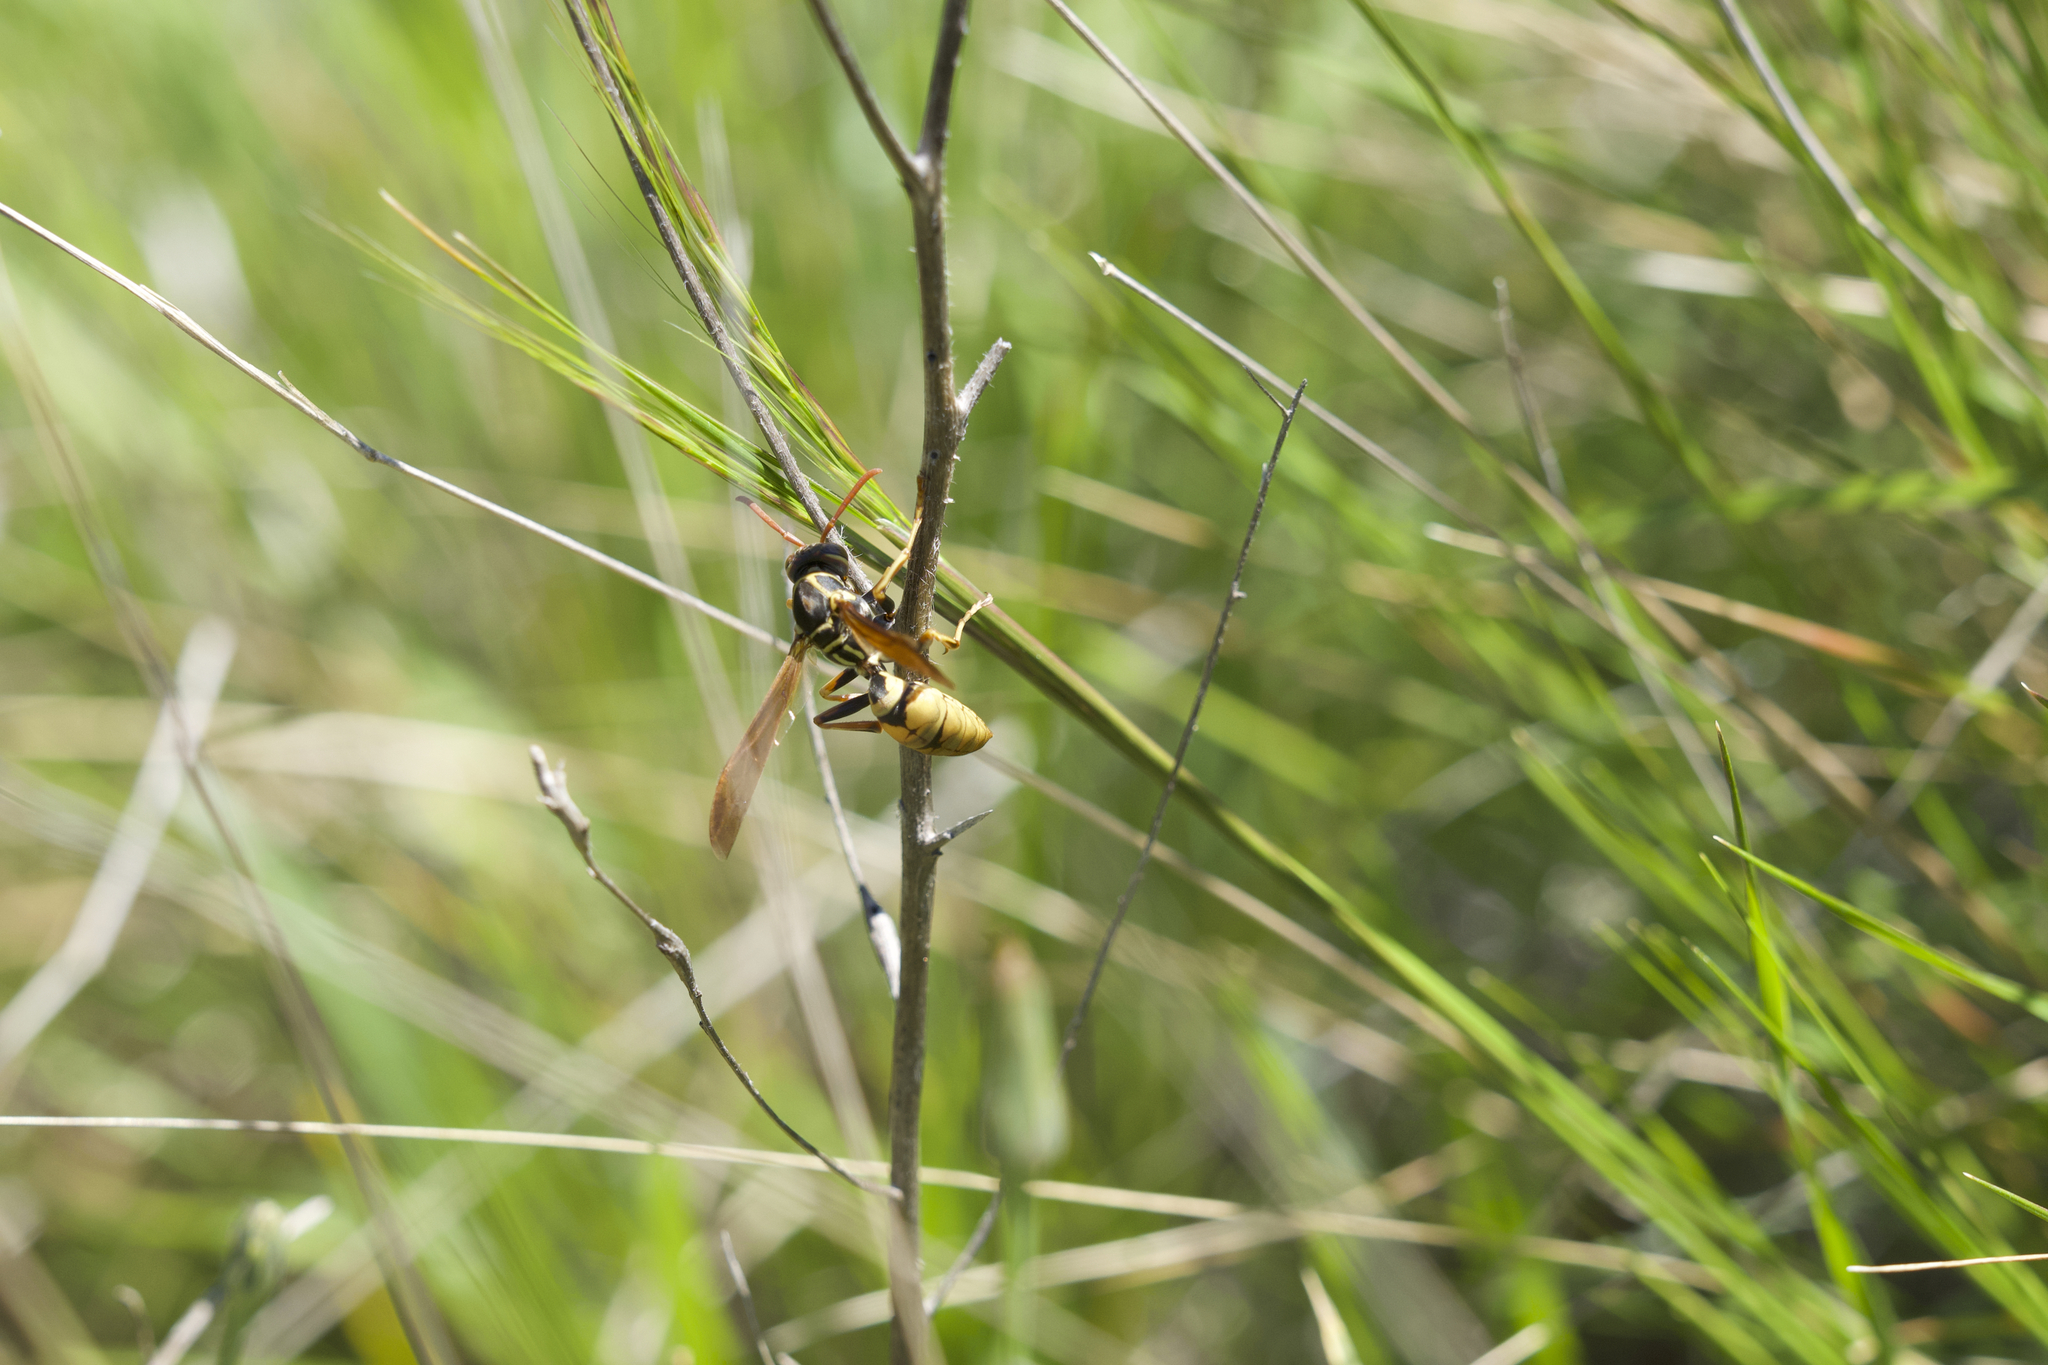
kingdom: Animalia
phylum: Arthropoda
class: Insecta
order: Hymenoptera
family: Eumenidae
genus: Polistes
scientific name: Polistes aurifer
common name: Paper wasp
